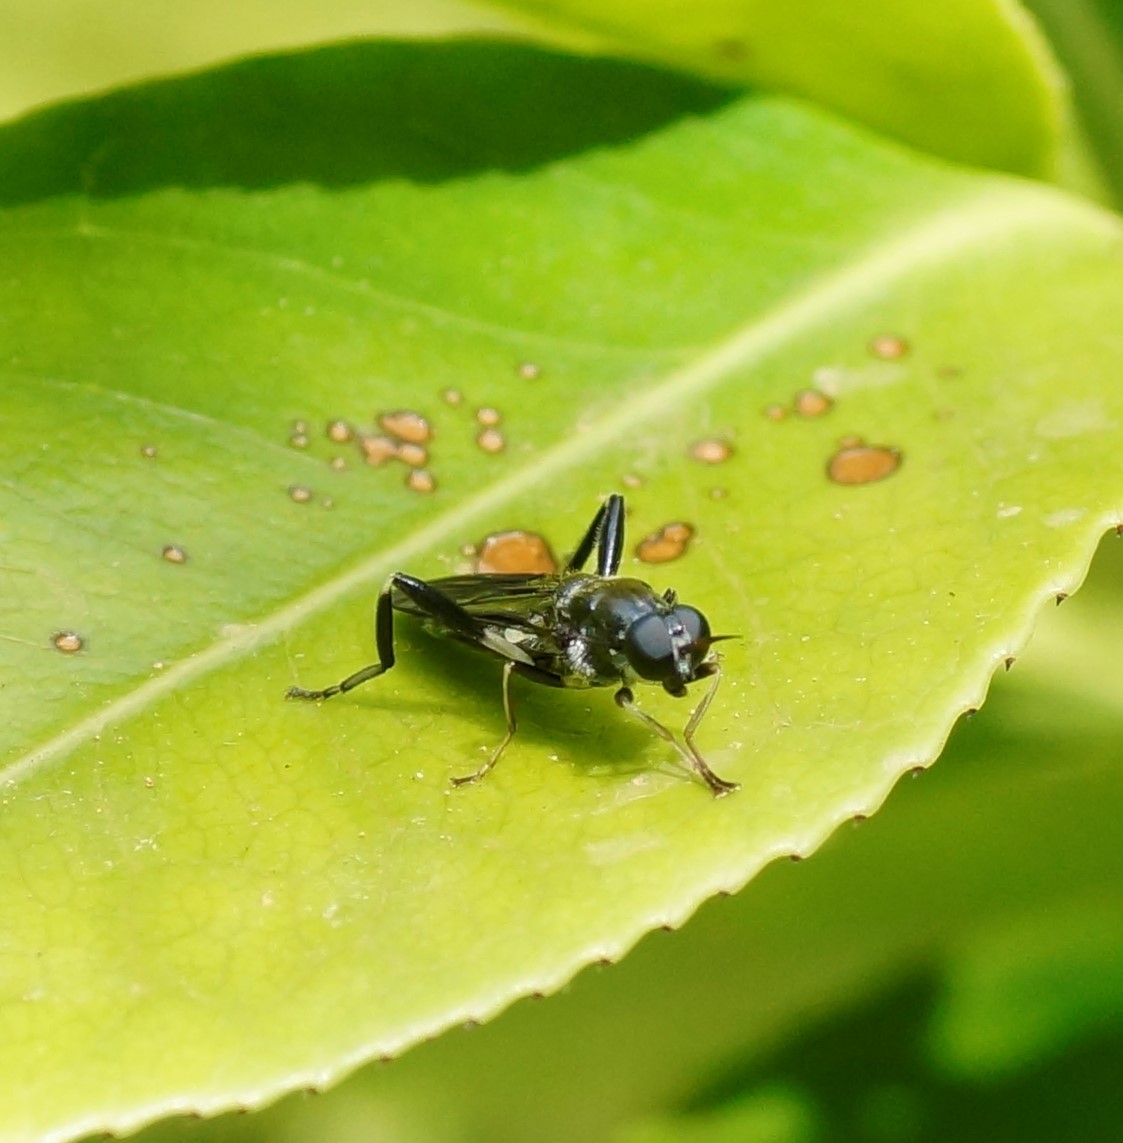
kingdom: Animalia
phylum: Arthropoda
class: Insecta
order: Diptera
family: Stratiomyidae
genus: Exaireta
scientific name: Exaireta spinigera
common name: Blue soldier fly
